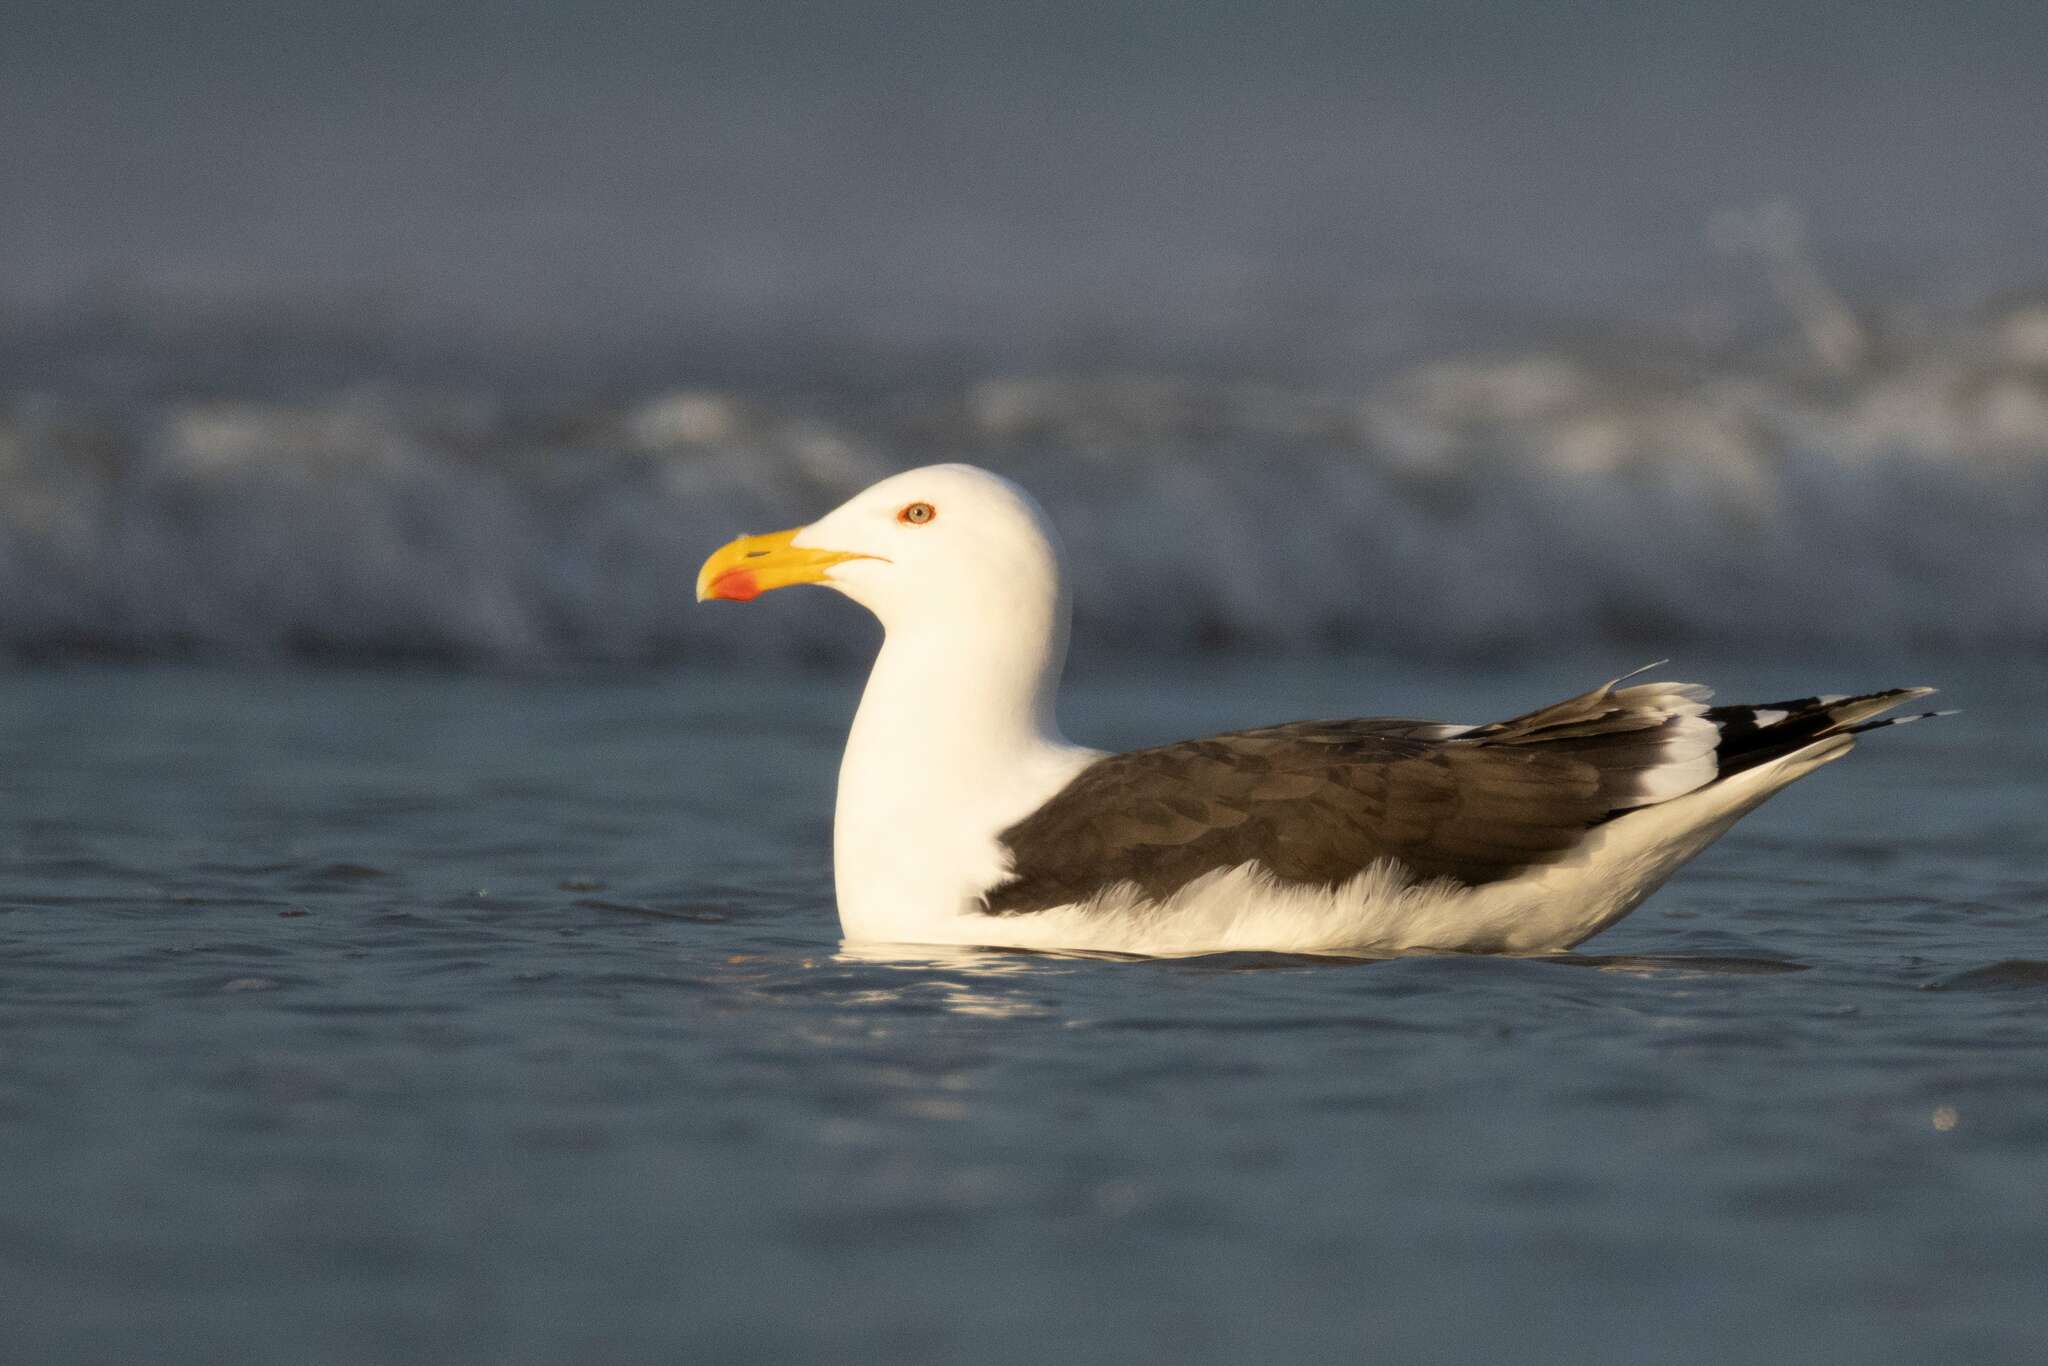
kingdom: Animalia
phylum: Chordata
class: Aves
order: Charadriiformes
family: Laridae
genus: Larus
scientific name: Larus marinus
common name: Great black-backed gull
